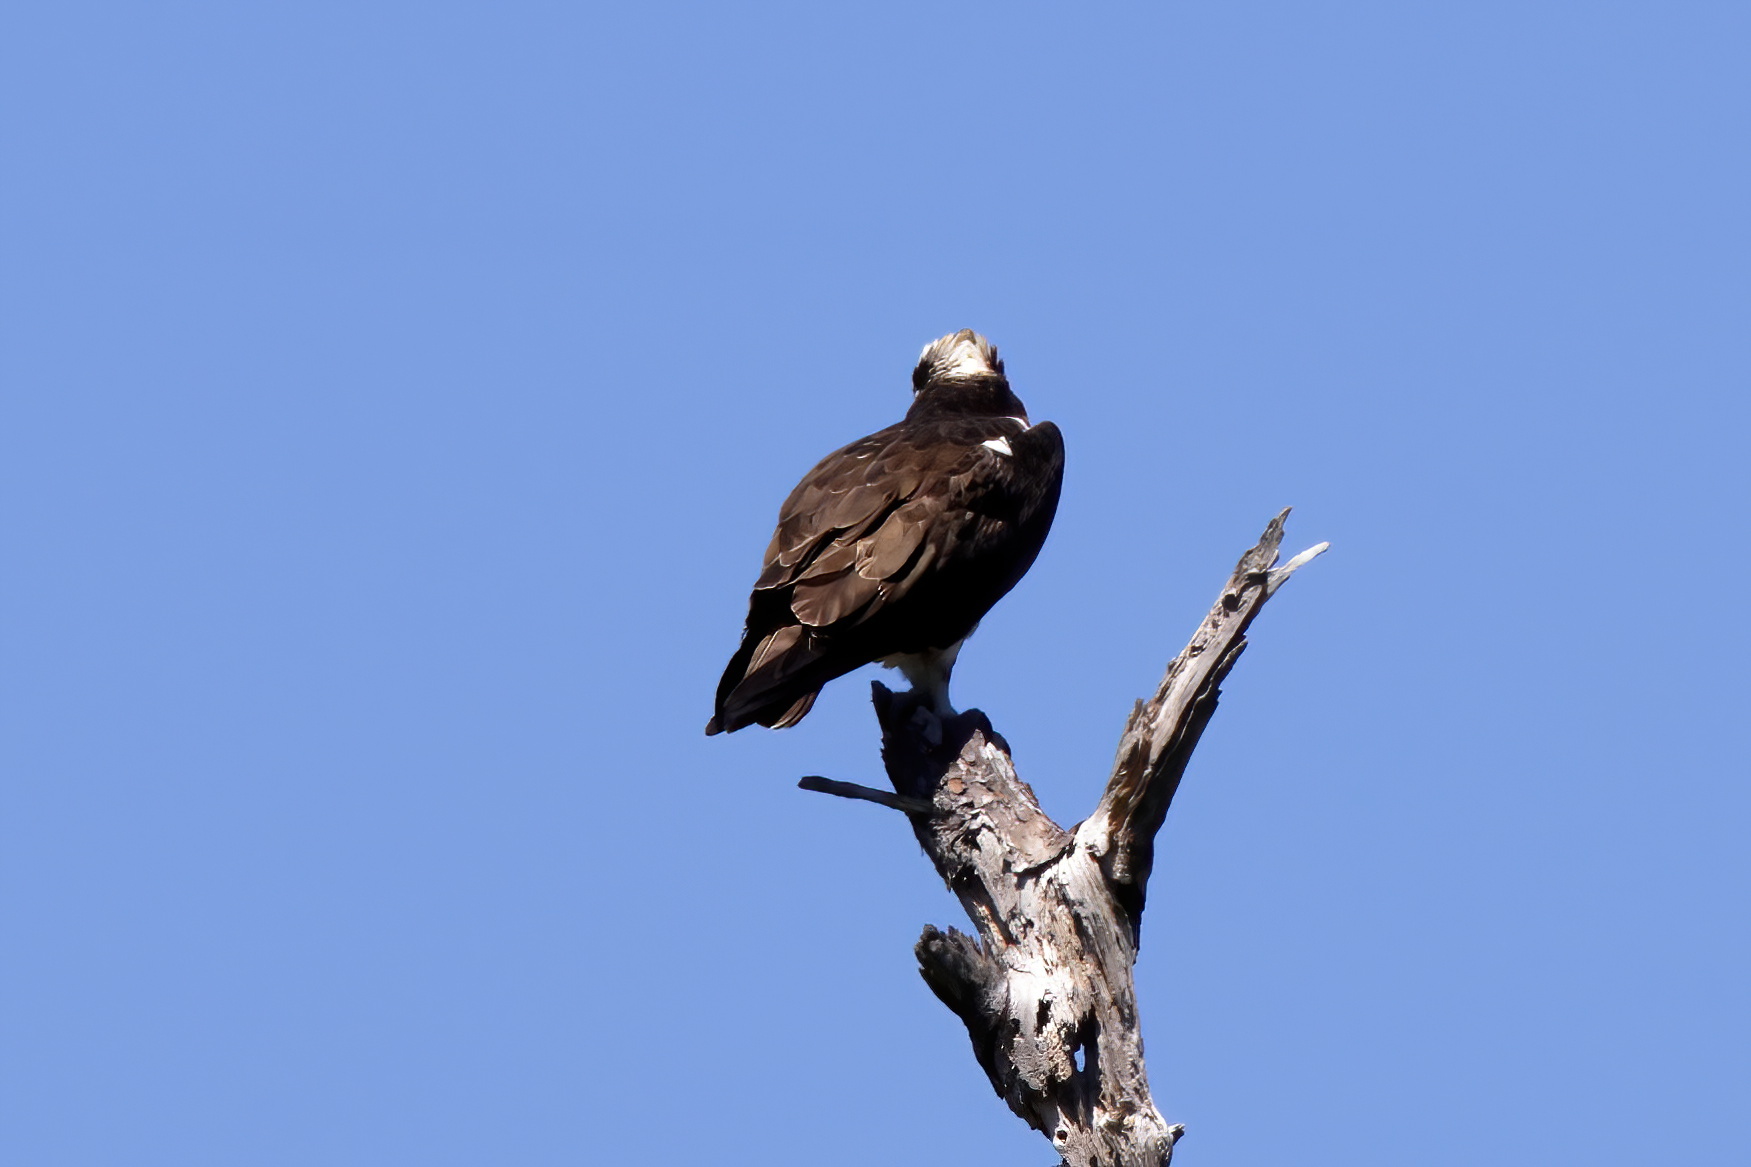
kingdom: Animalia
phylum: Chordata
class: Aves
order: Accipitriformes
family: Pandionidae
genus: Pandion
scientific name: Pandion haliaetus
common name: Osprey
